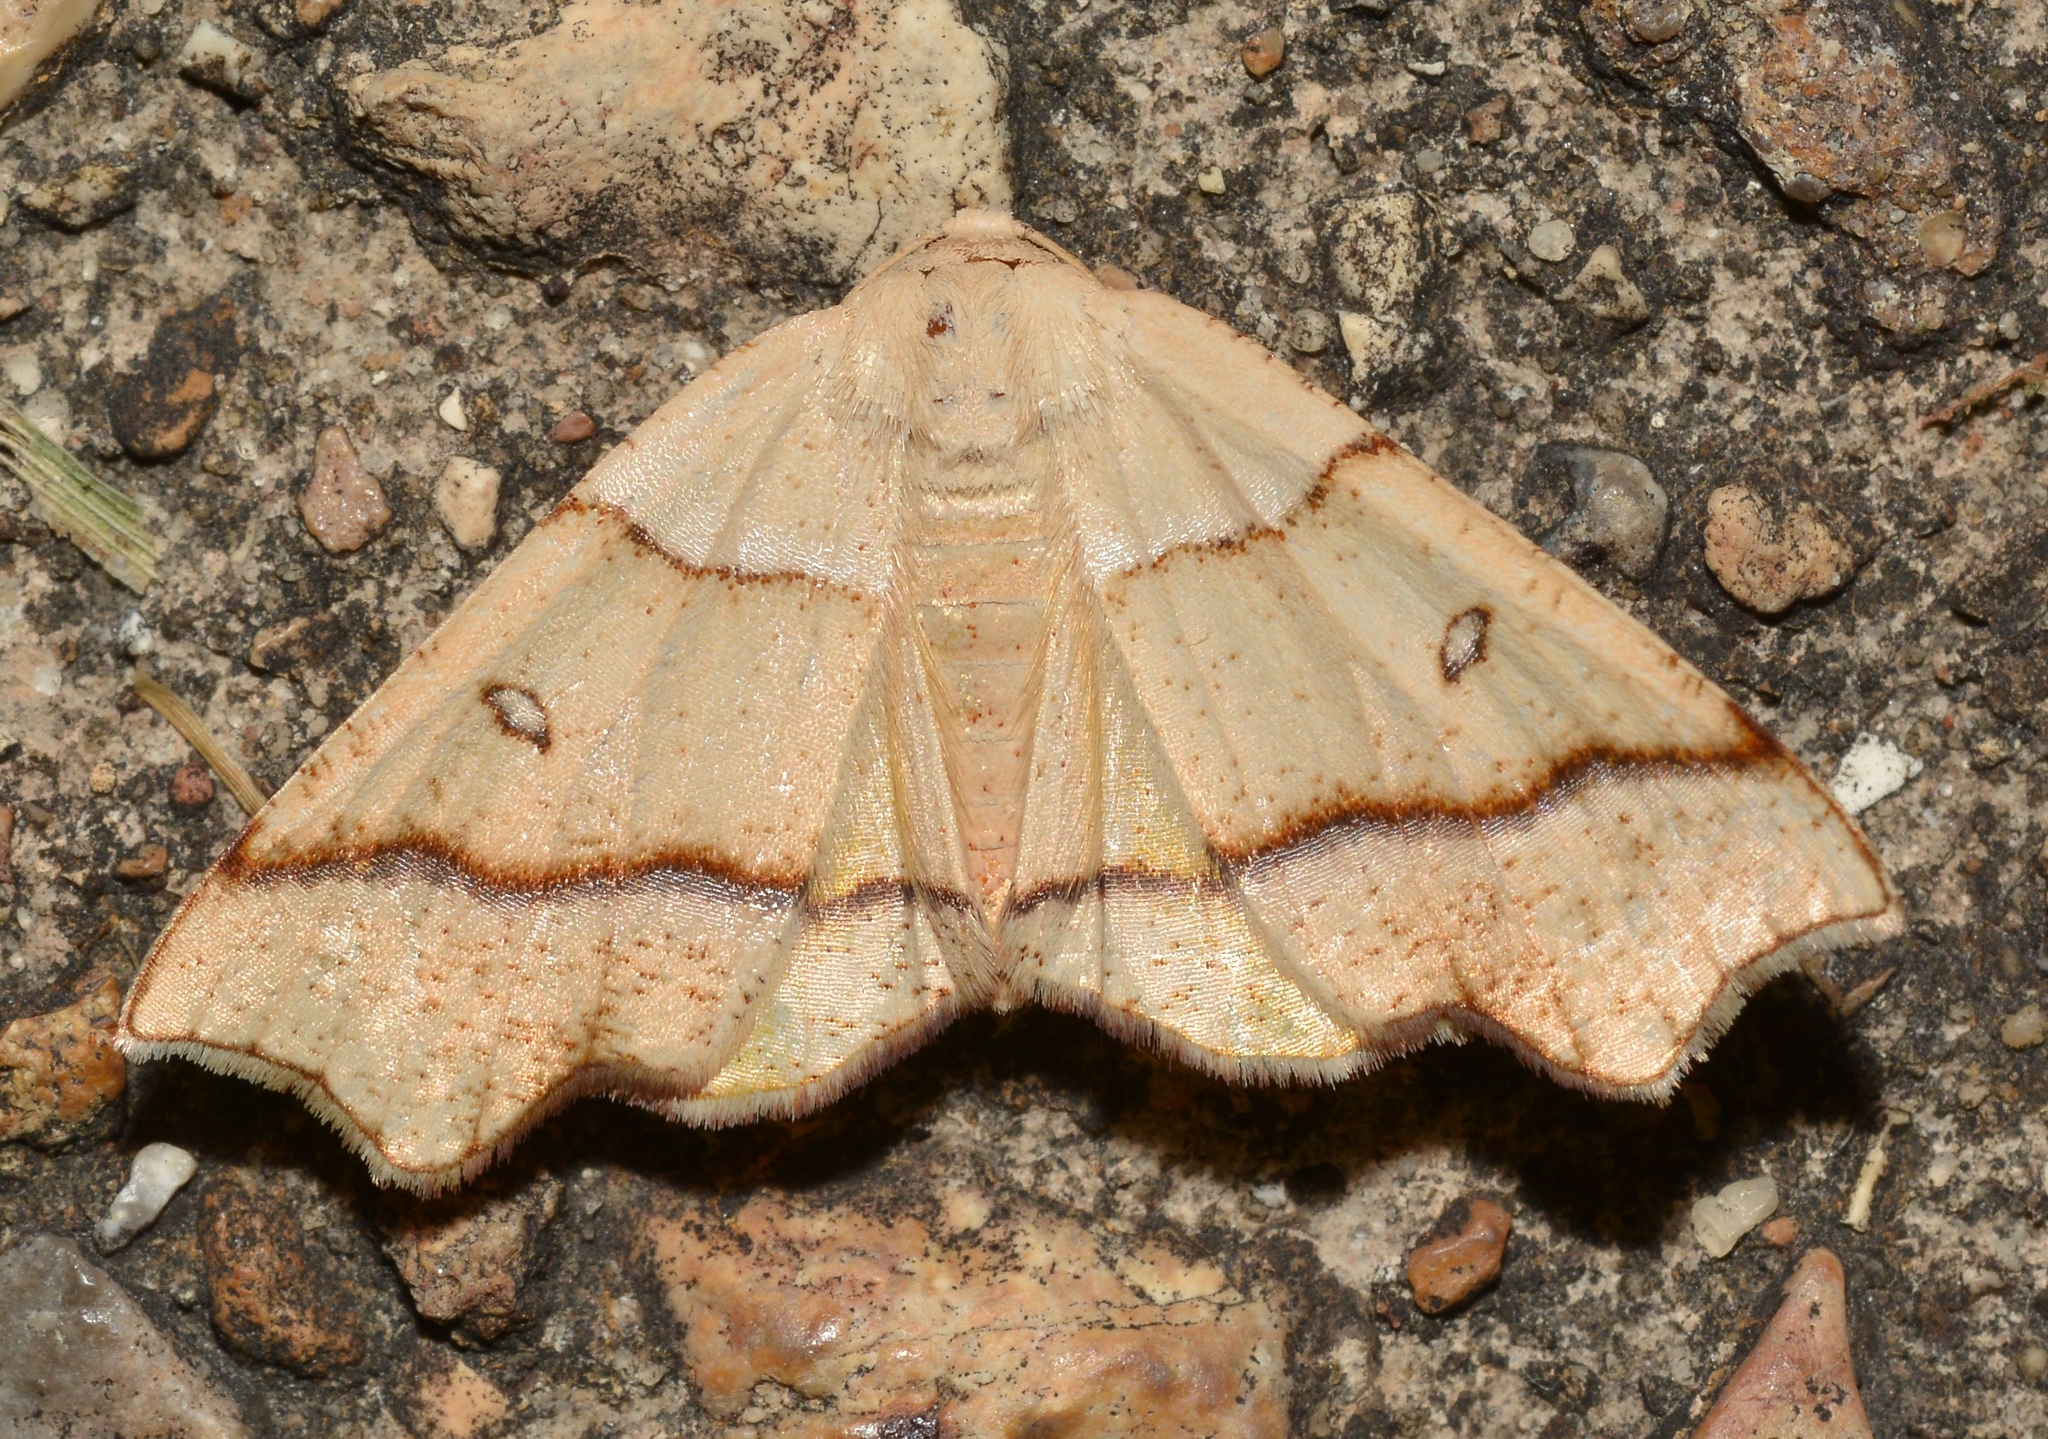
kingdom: Animalia
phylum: Arthropoda
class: Insecta
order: Lepidoptera
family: Geometridae
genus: Plagodis
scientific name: Plagodis alcoolaria
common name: Hollow-spotted plagodis
